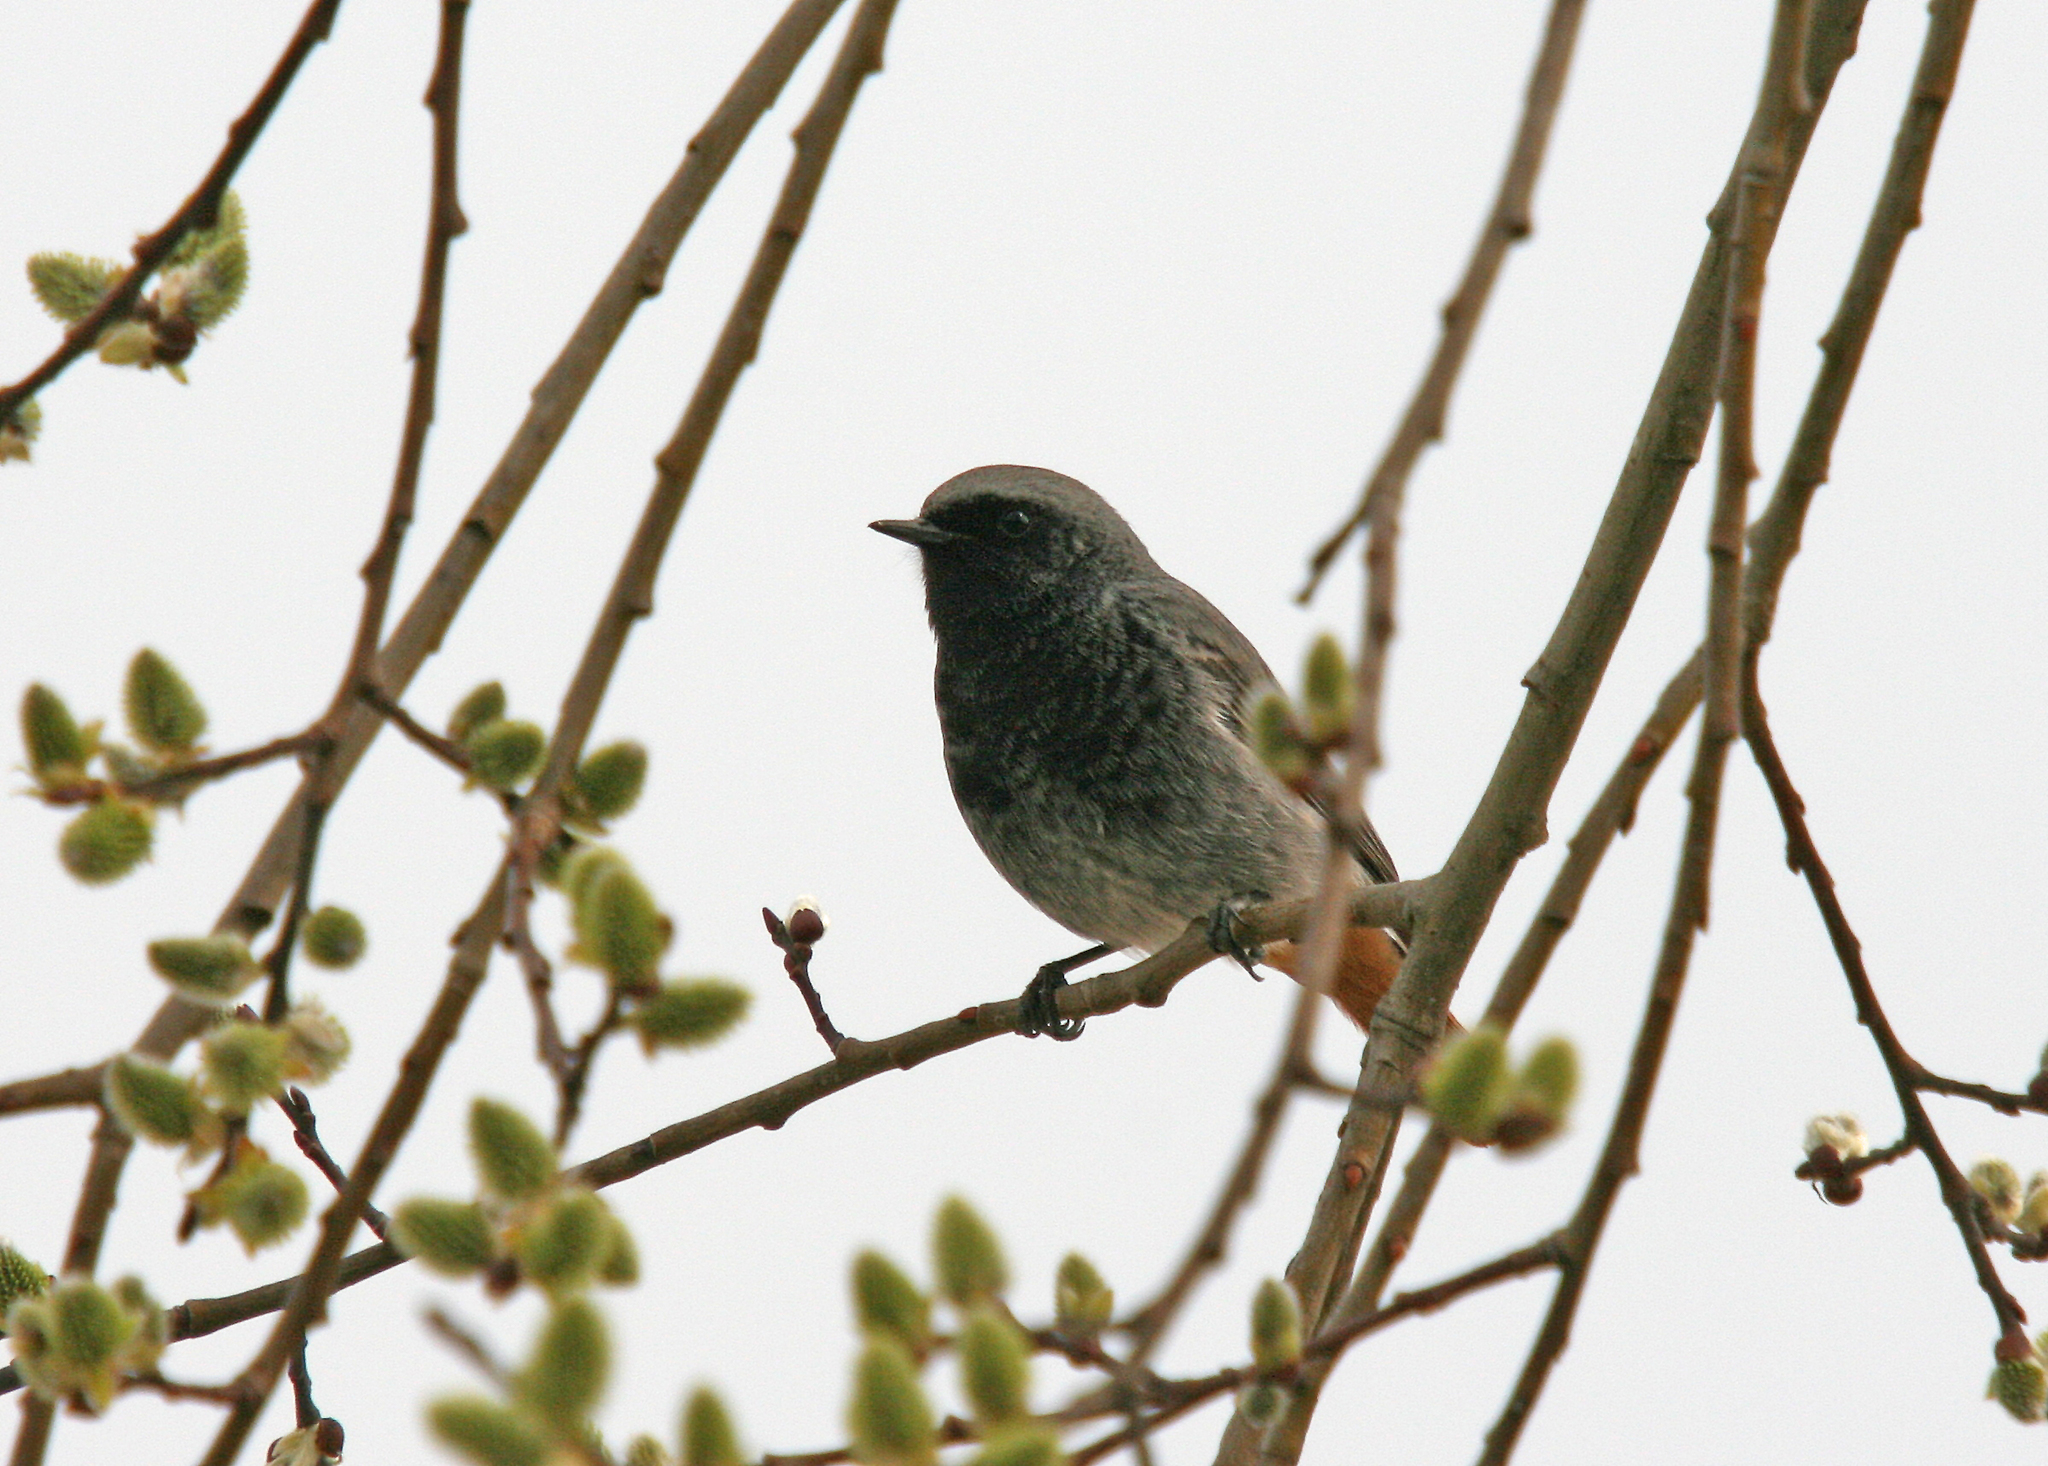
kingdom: Animalia
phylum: Chordata
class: Aves
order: Passeriformes
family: Muscicapidae
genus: Phoenicurus
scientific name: Phoenicurus ochruros
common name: Black redstart
